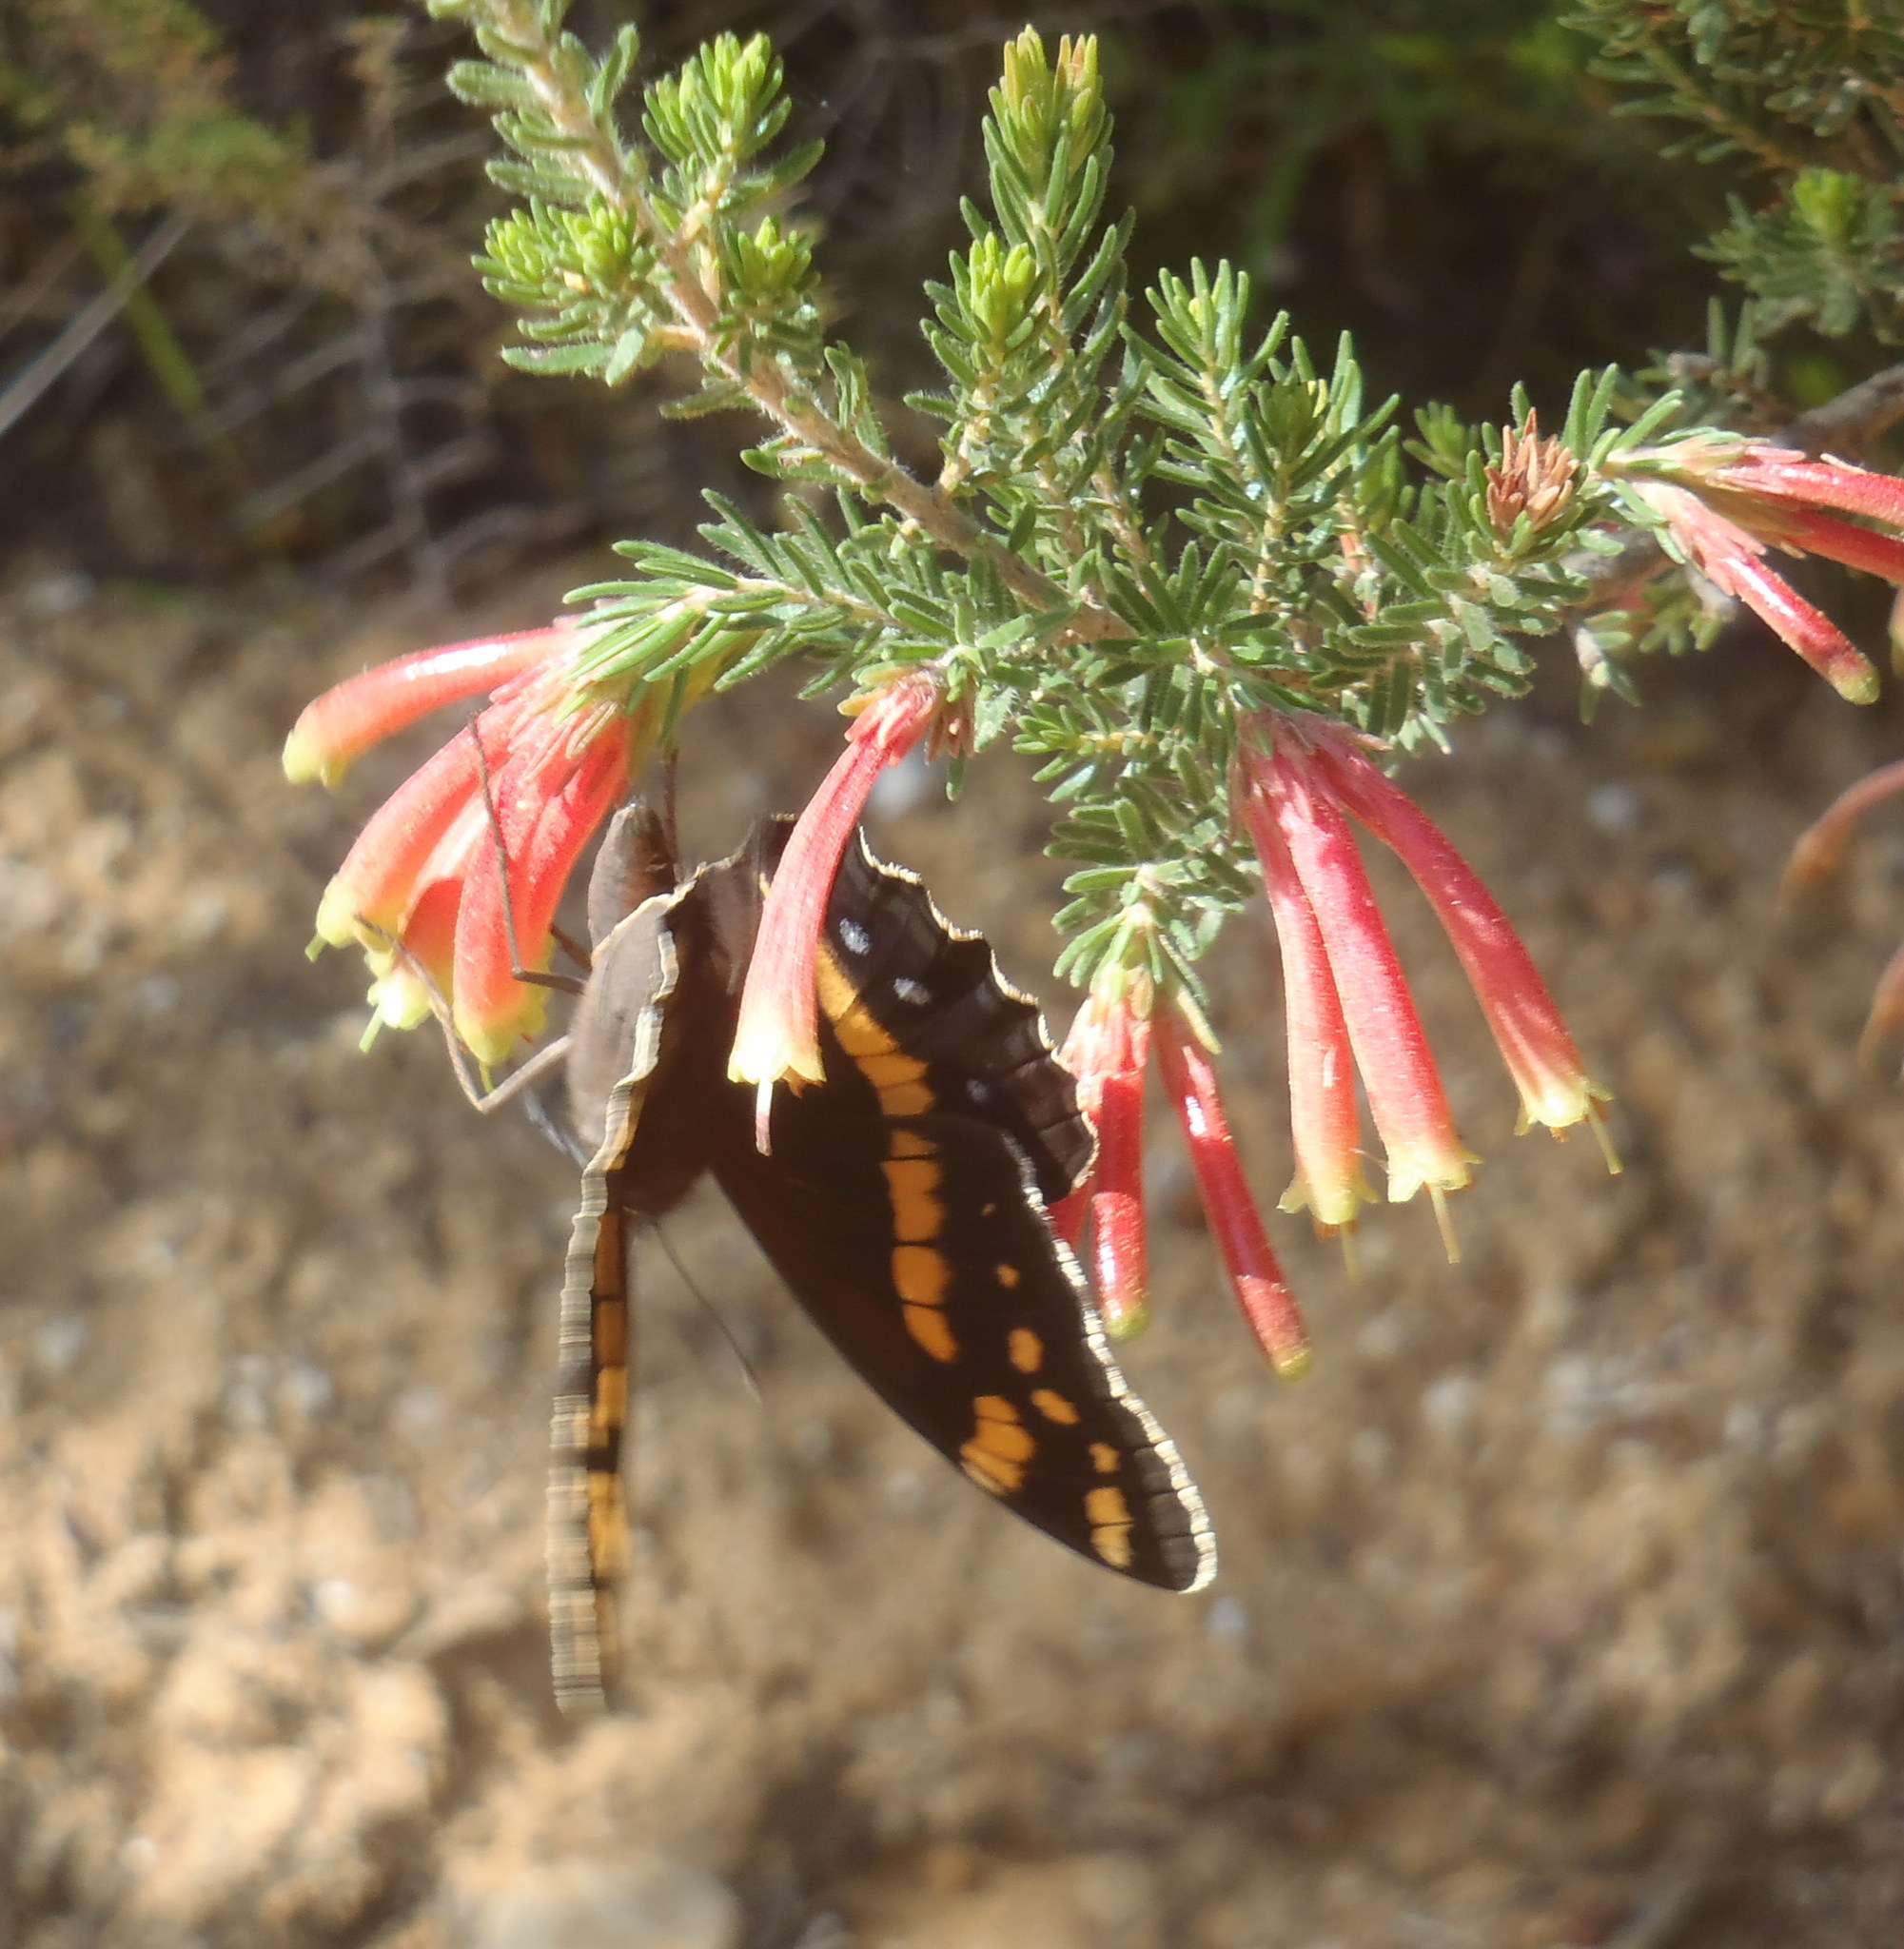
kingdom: Animalia
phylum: Arthropoda
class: Insecta
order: Lepidoptera
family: Nymphalidae
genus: Meneris
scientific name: Meneris Aeropetes tulbaghia
